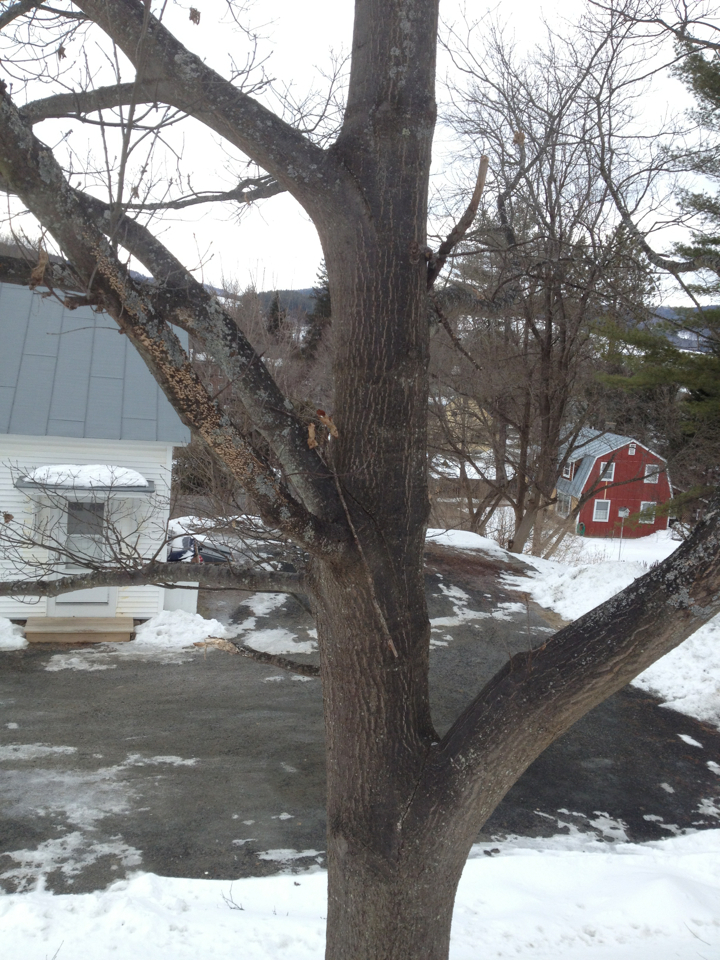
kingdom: Plantae
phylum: Tracheophyta
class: Magnoliopsida
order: Fagales
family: Fagaceae
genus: Quercus
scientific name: Quercus rubra
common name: Red oak
